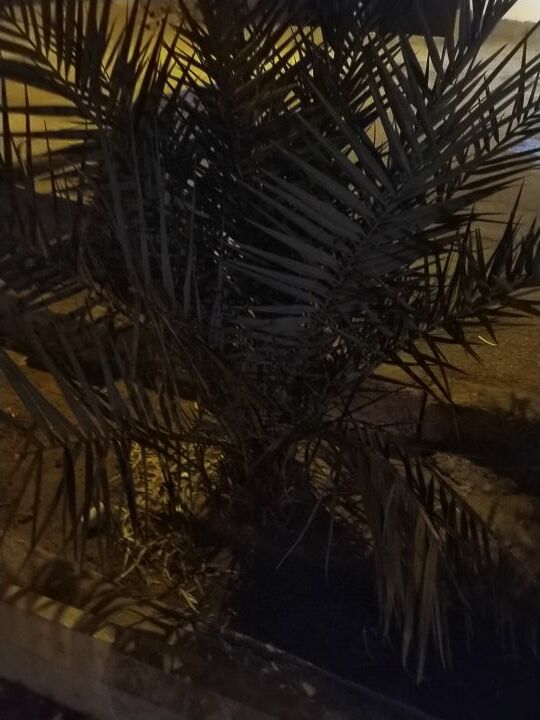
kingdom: Plantae
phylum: Tracheophyta
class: Liliopsida
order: Arecales
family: Arecaceae
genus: Phoenix
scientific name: Phoenix dactylifera
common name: Date palm
